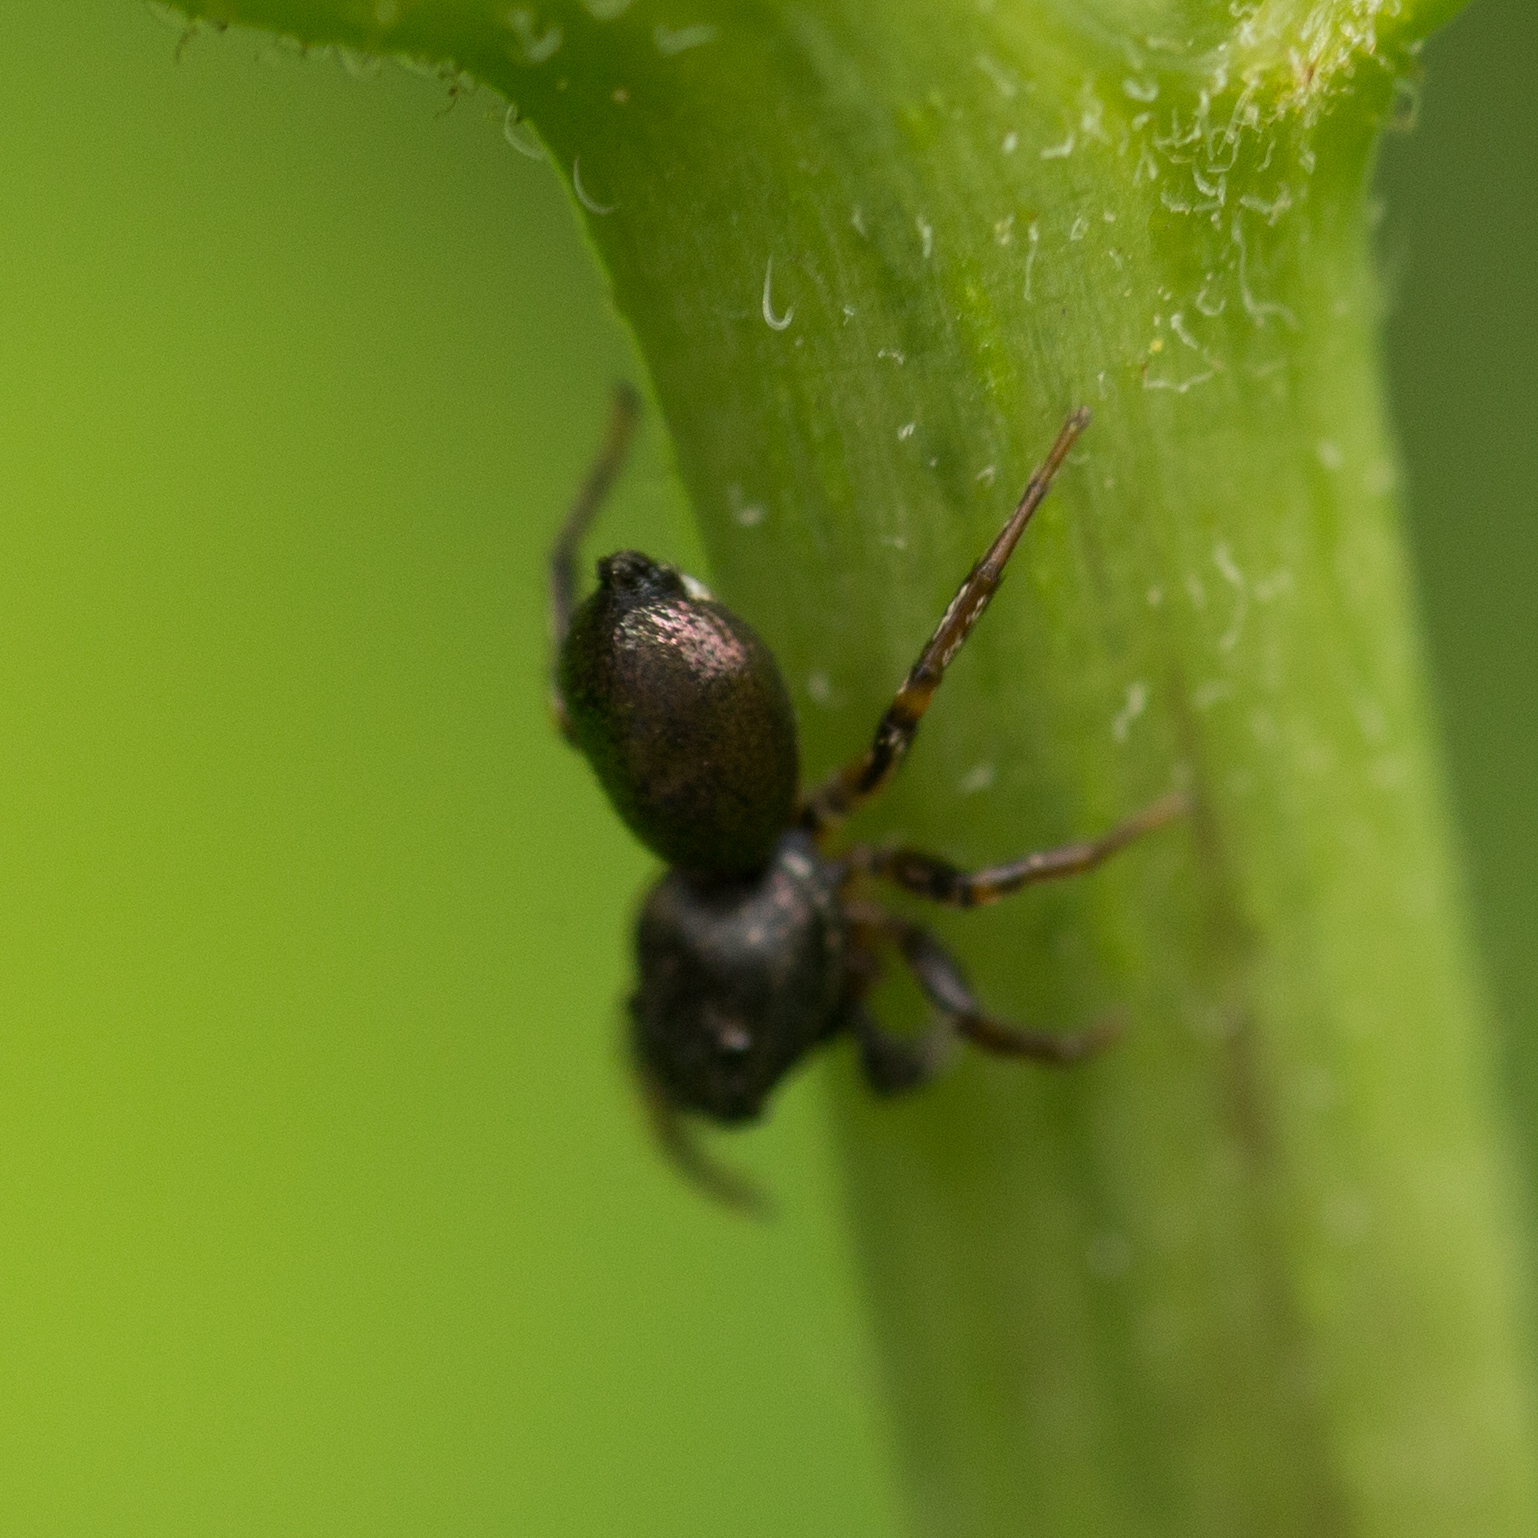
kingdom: Animalia
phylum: Arthropoda
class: Arachnida
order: Araneae
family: Salticidae
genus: Heliophanus
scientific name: Heliophanus
